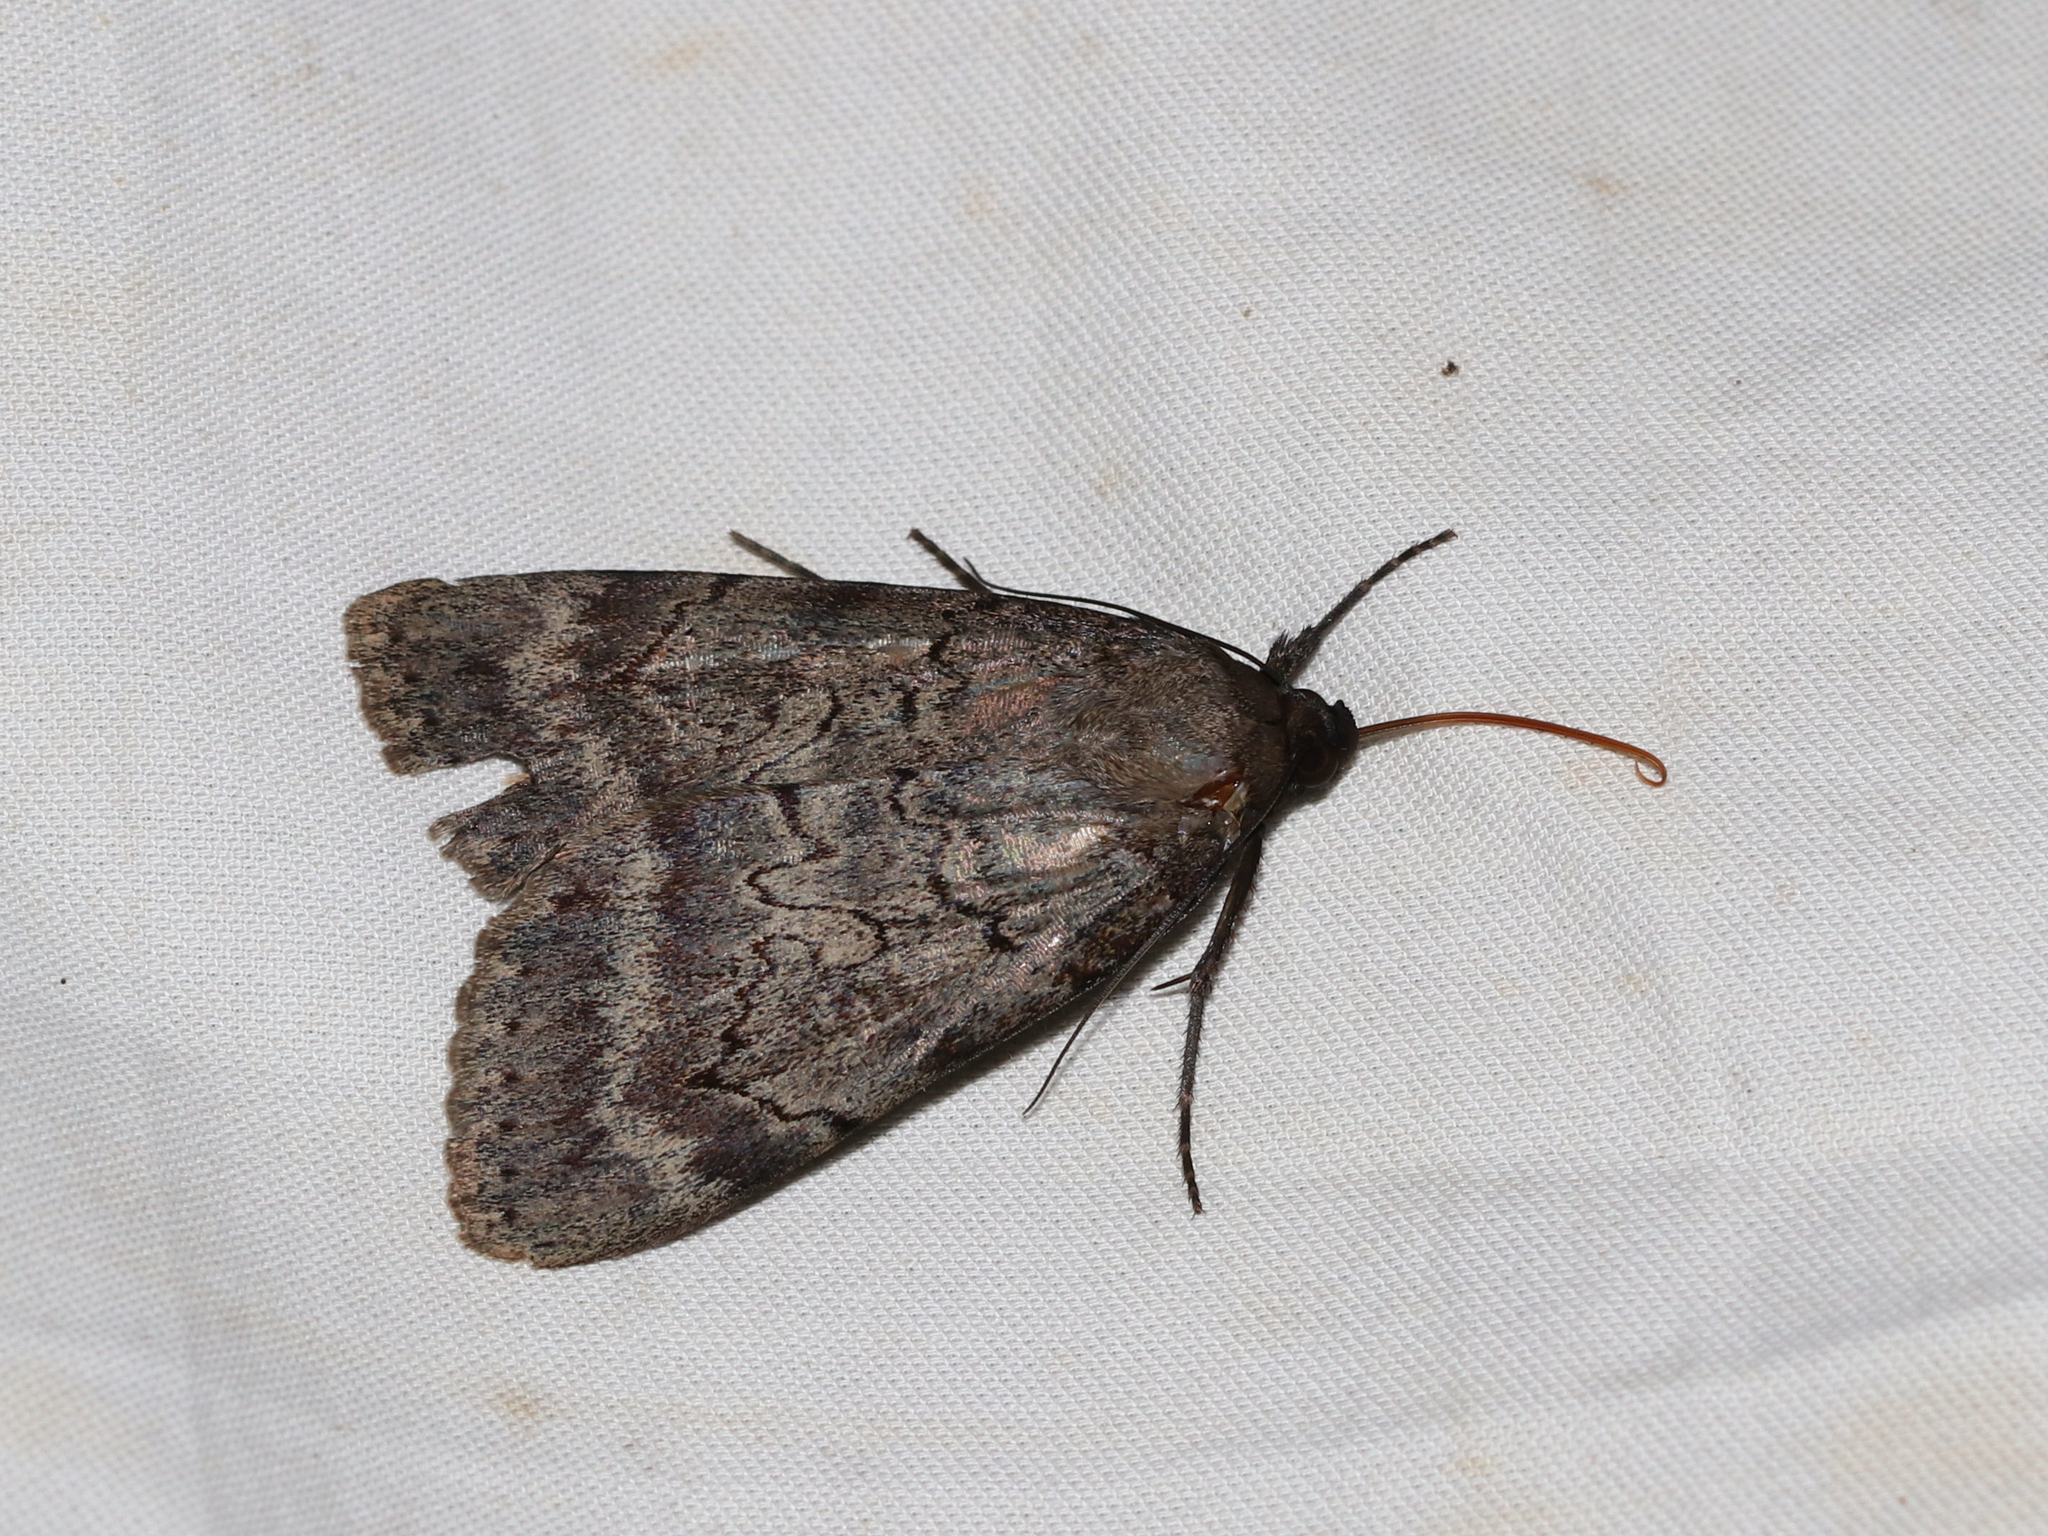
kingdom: Animalia
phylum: Arthropoda
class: Insecta
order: Lepidoptera
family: Erebidae
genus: Catocala
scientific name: Catocala serena
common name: Serene underwing
